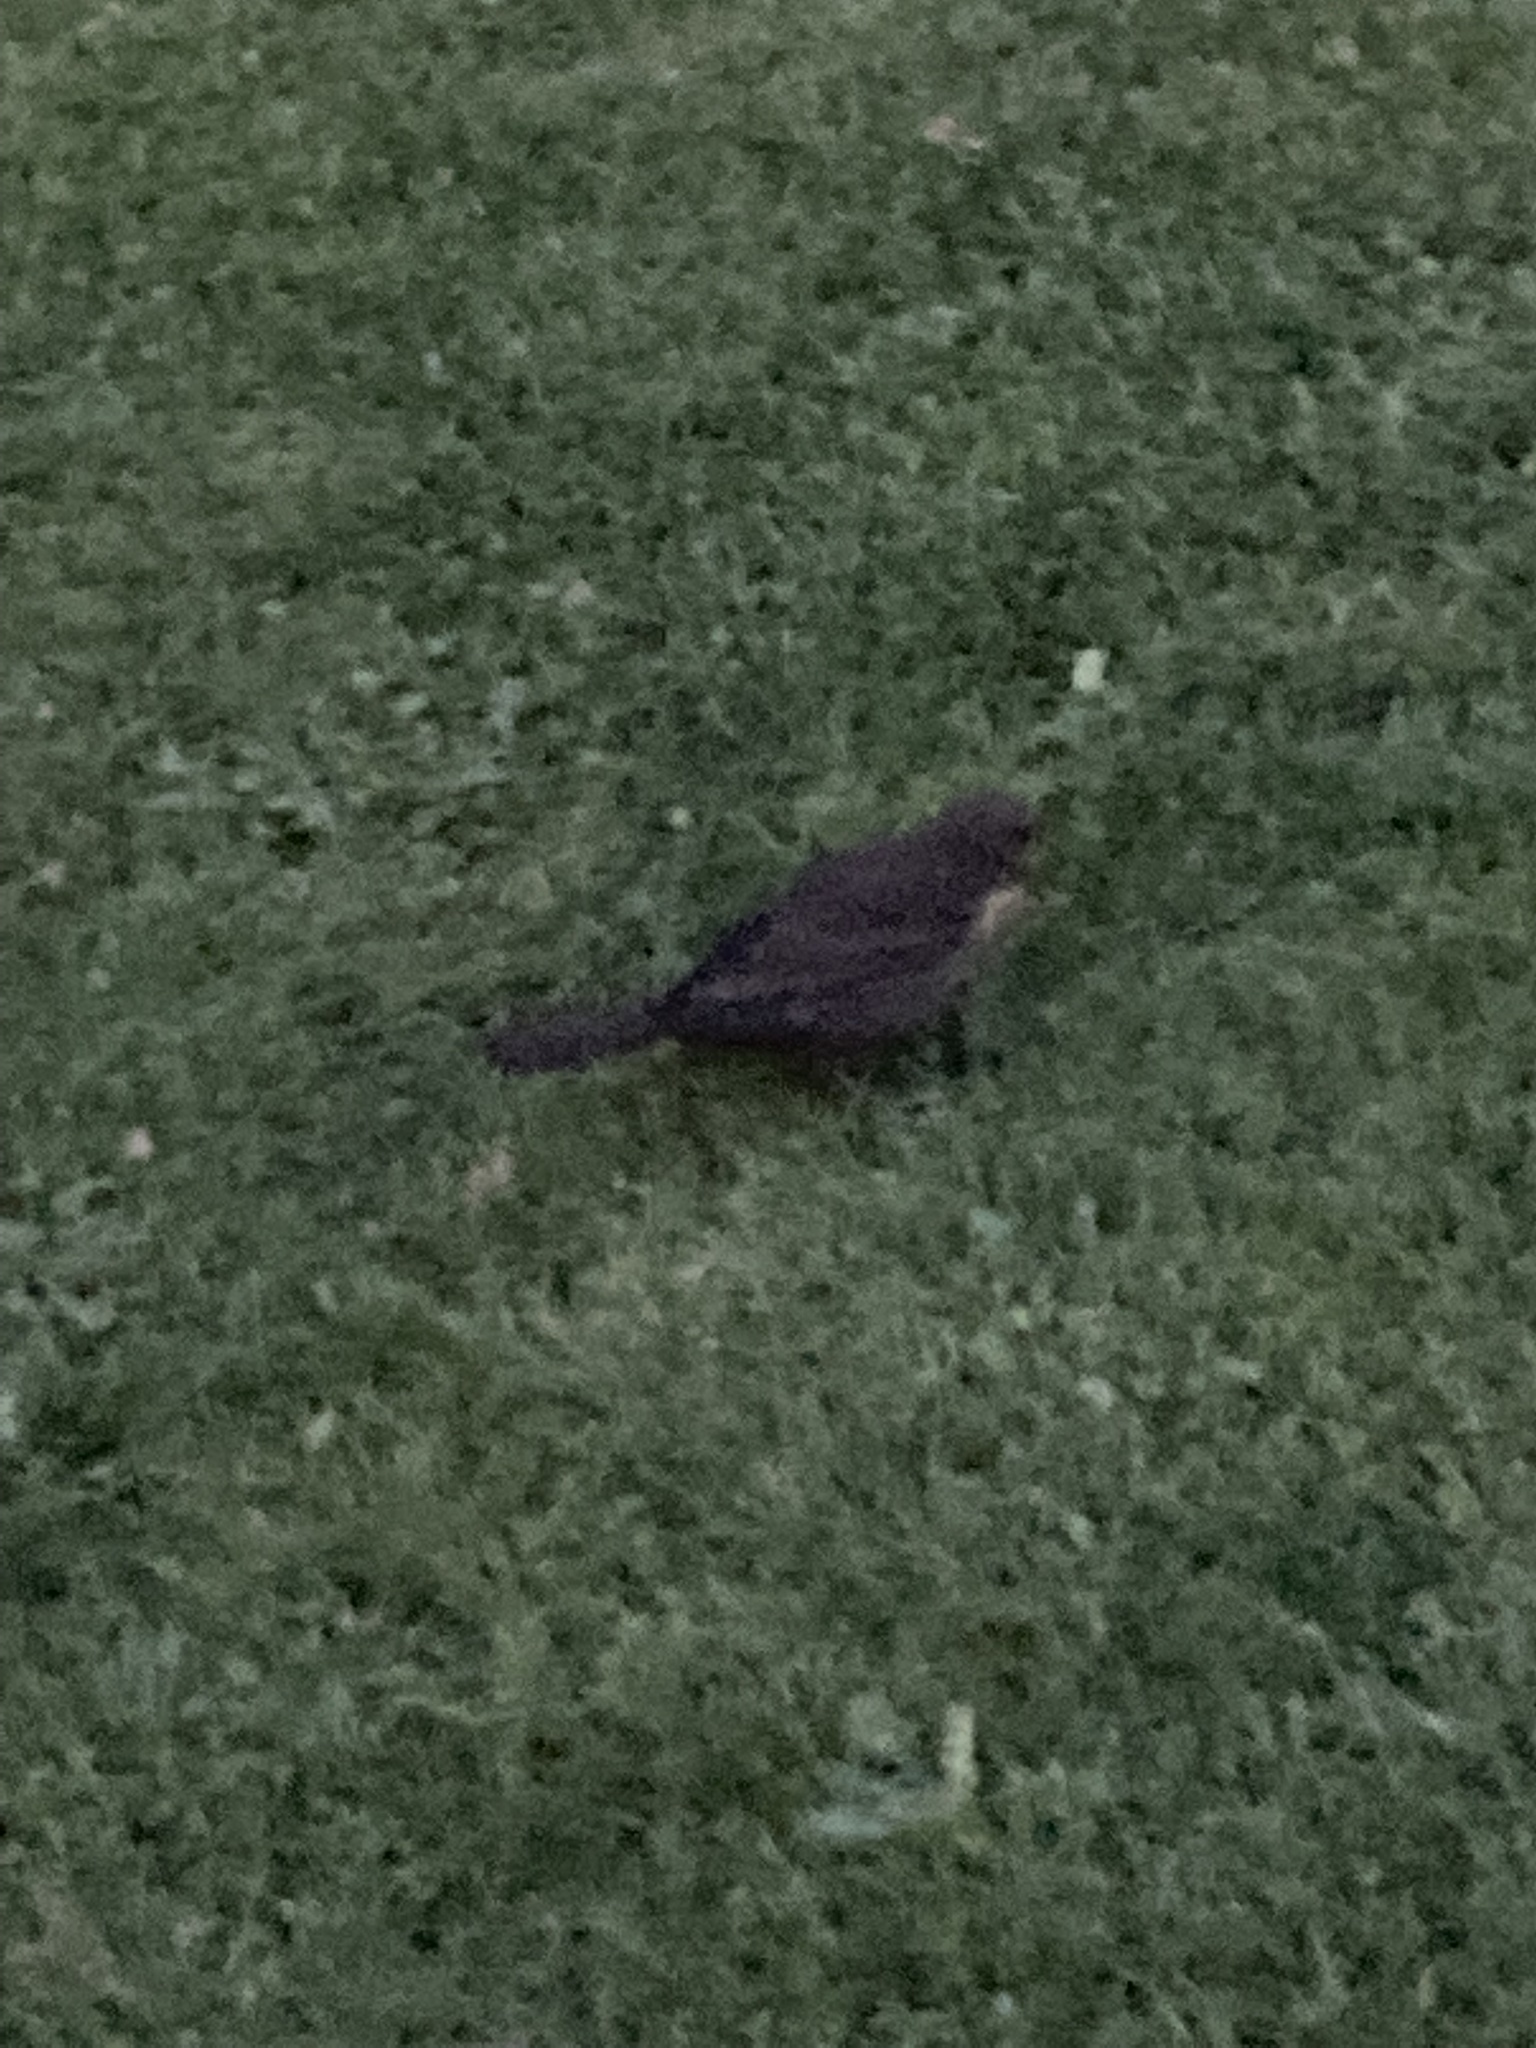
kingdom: Animalia
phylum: Chordata
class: Aves
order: Passeriformes
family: Turdidae
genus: Turdus
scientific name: Turdus merula
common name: Common blackbird
